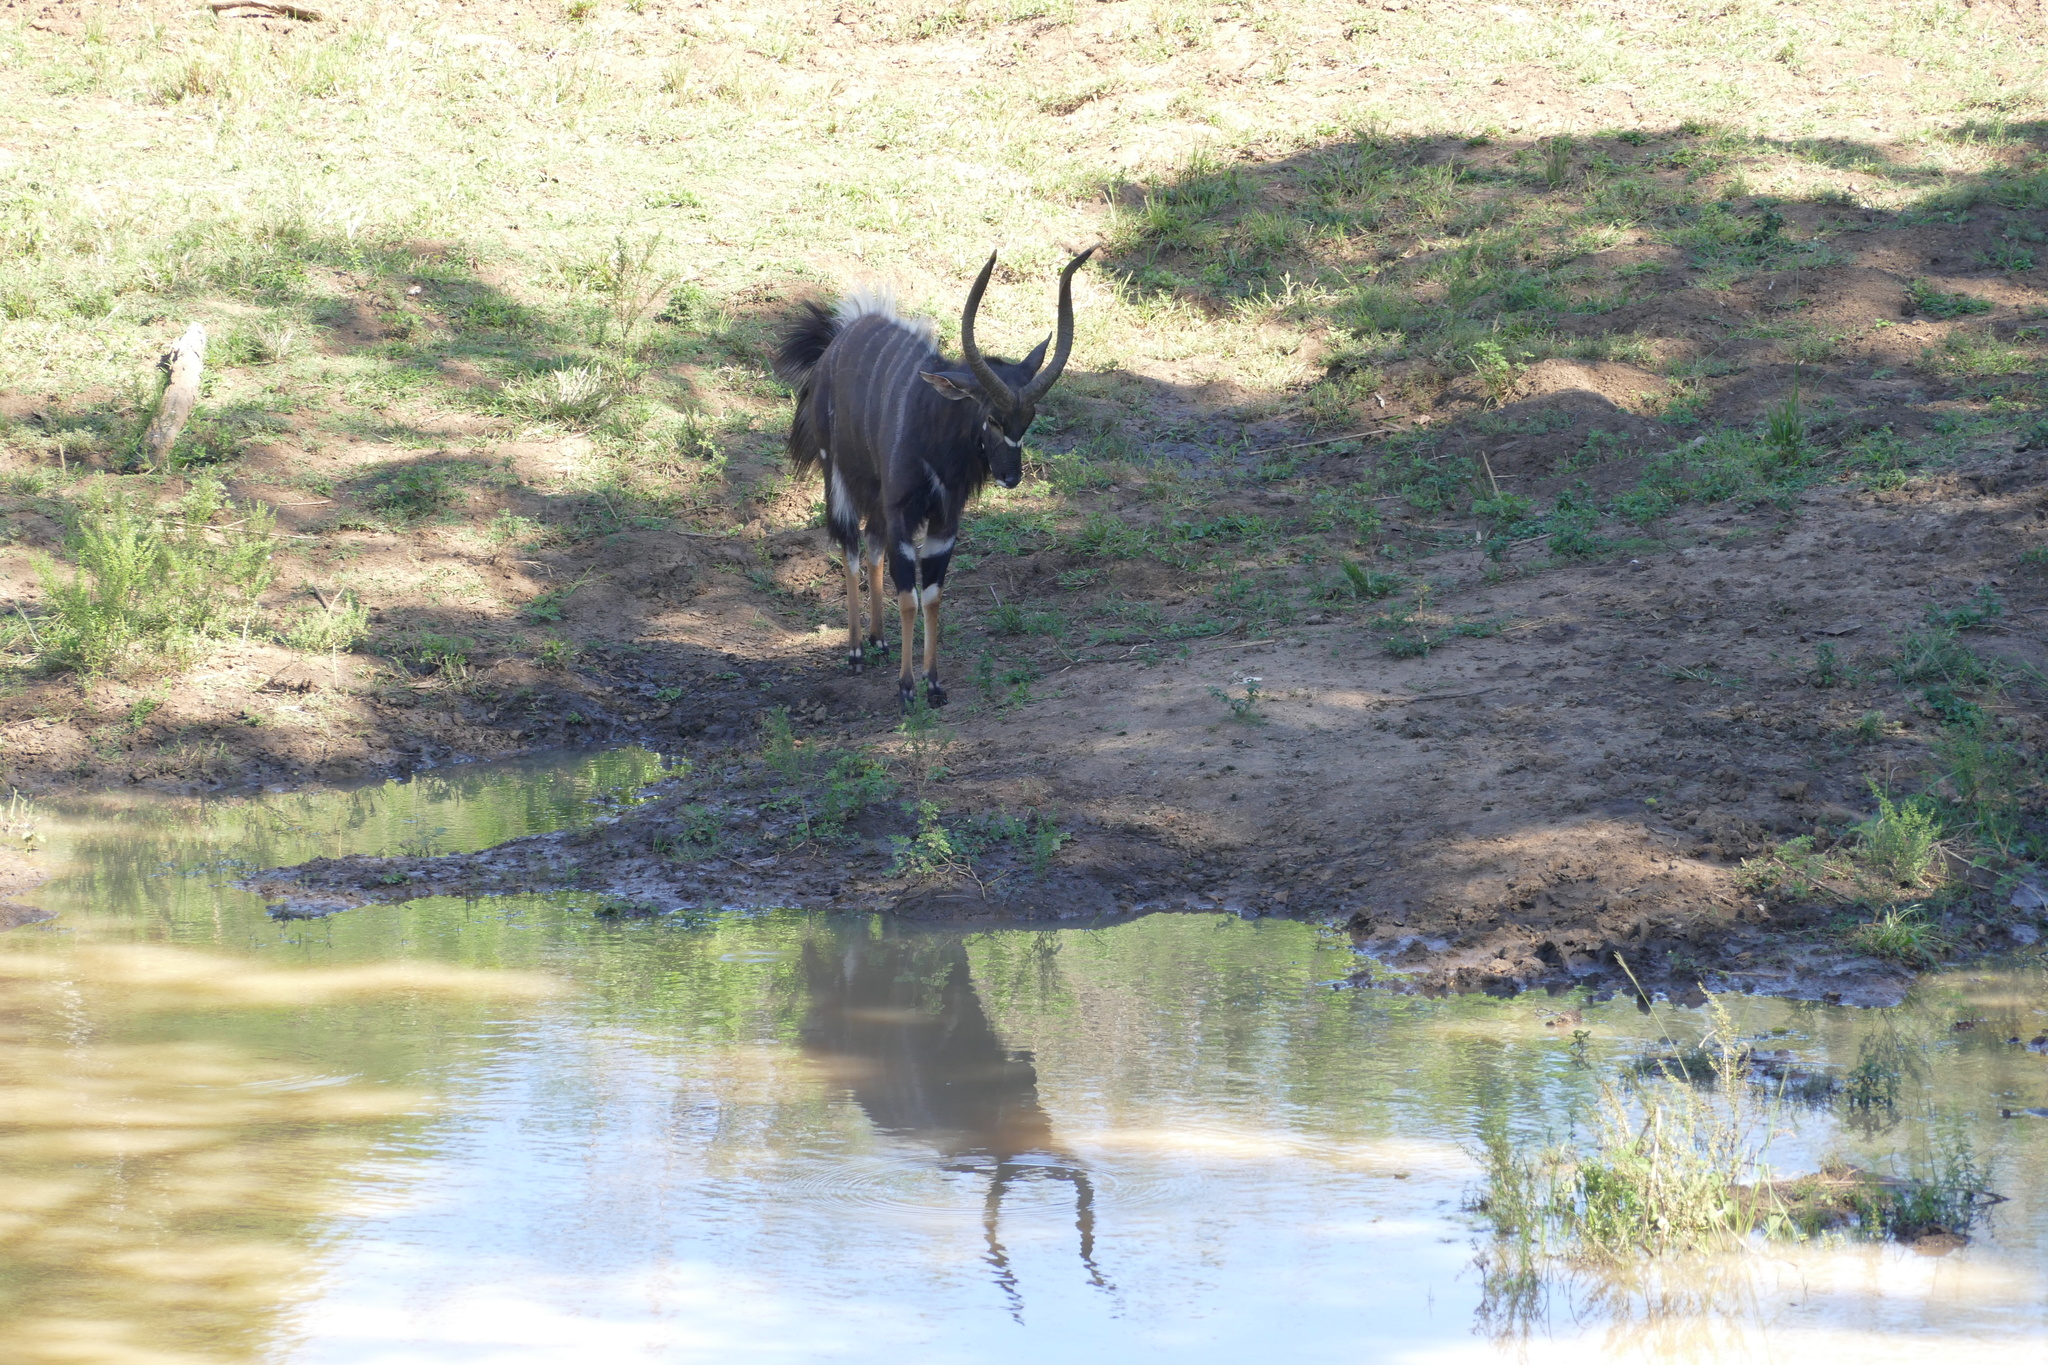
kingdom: Animalia
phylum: Chordata
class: Mammalia
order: Artiodactyla
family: Bovidae
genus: Tragelaphus
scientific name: Tragelaphus angasii
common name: Nyala
